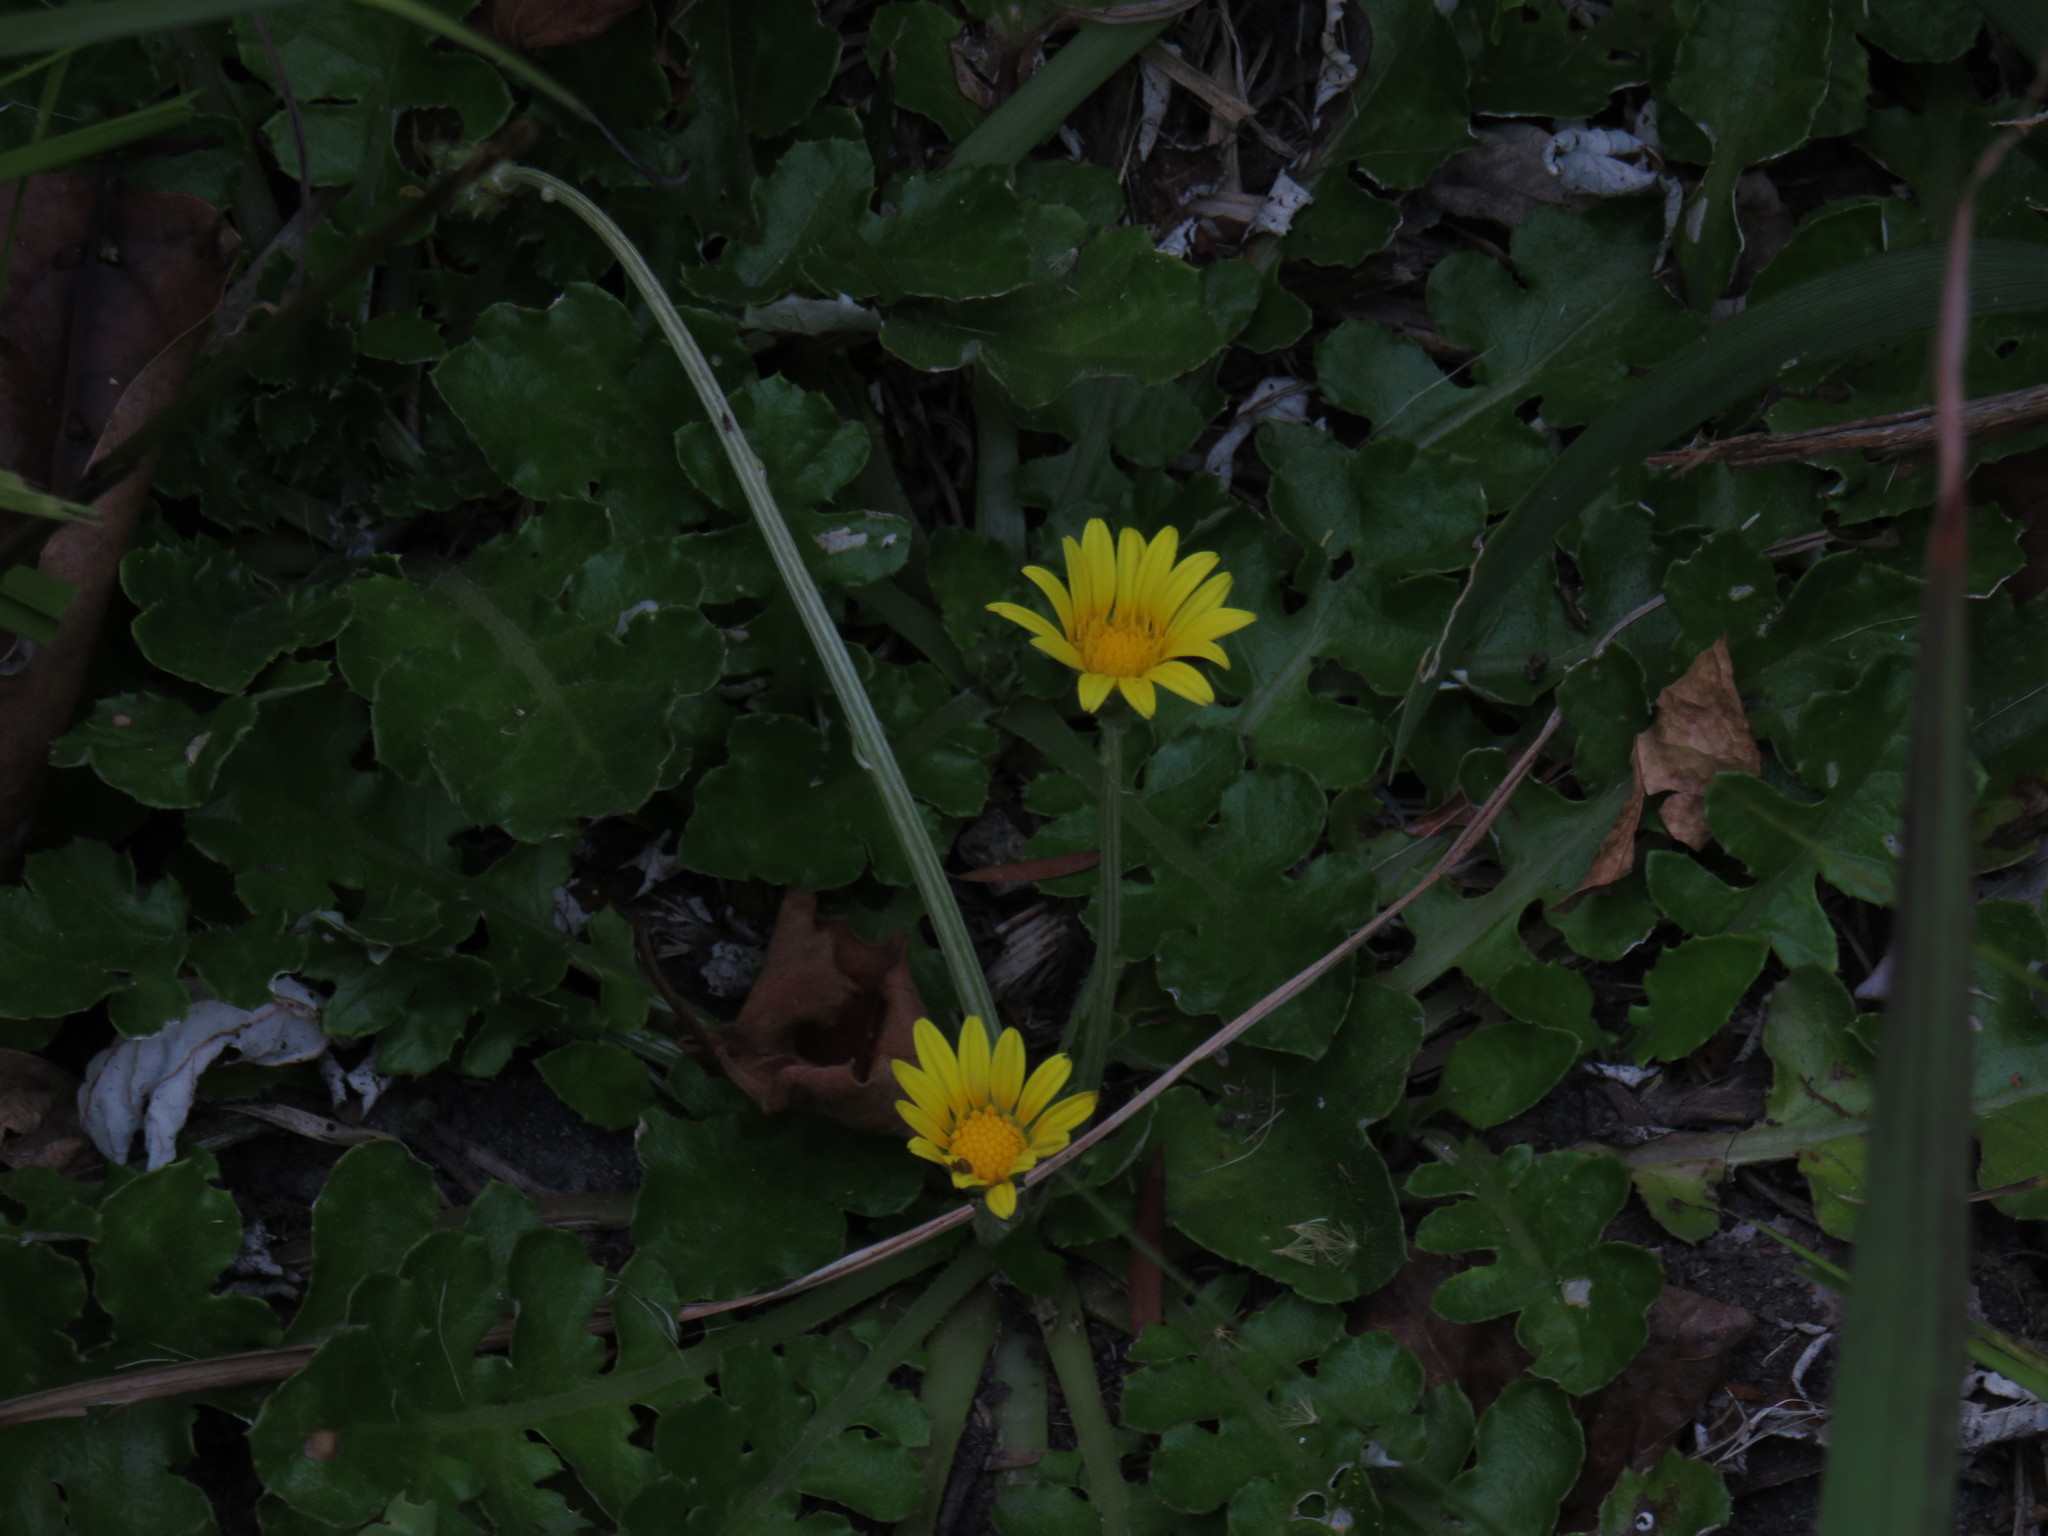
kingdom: Plantae
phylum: Tracheophyta
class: Magnoliopsida
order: Asterales
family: Asteraceae
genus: Arctotheca
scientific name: Arctotheca prostrata
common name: Capeweed
